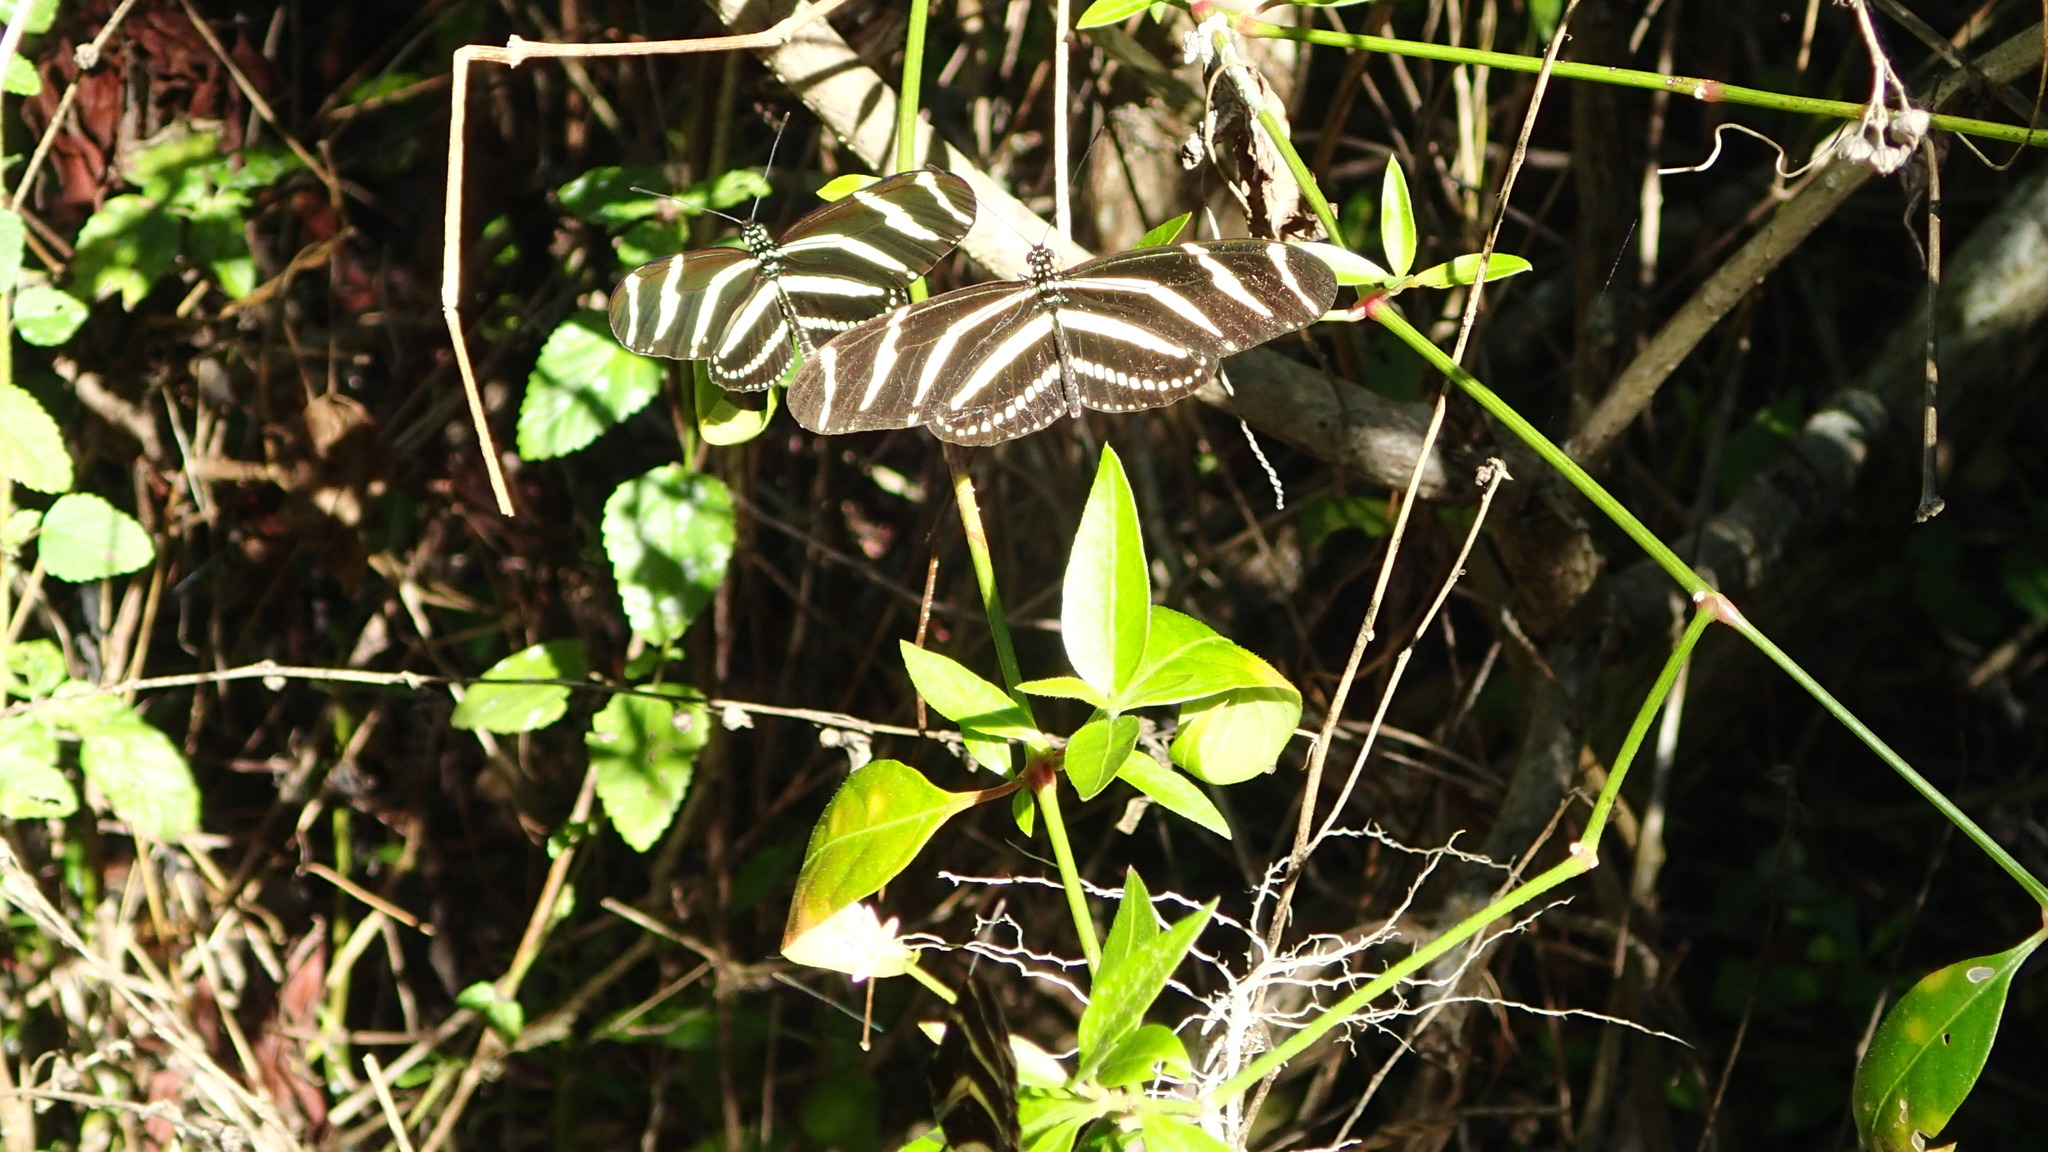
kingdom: Animalia
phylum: Arthropoda
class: Insecta
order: Lepidoptera
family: Nymphalidae
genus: Heliconius
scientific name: Heliconius charithonia
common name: Zebra long wing
